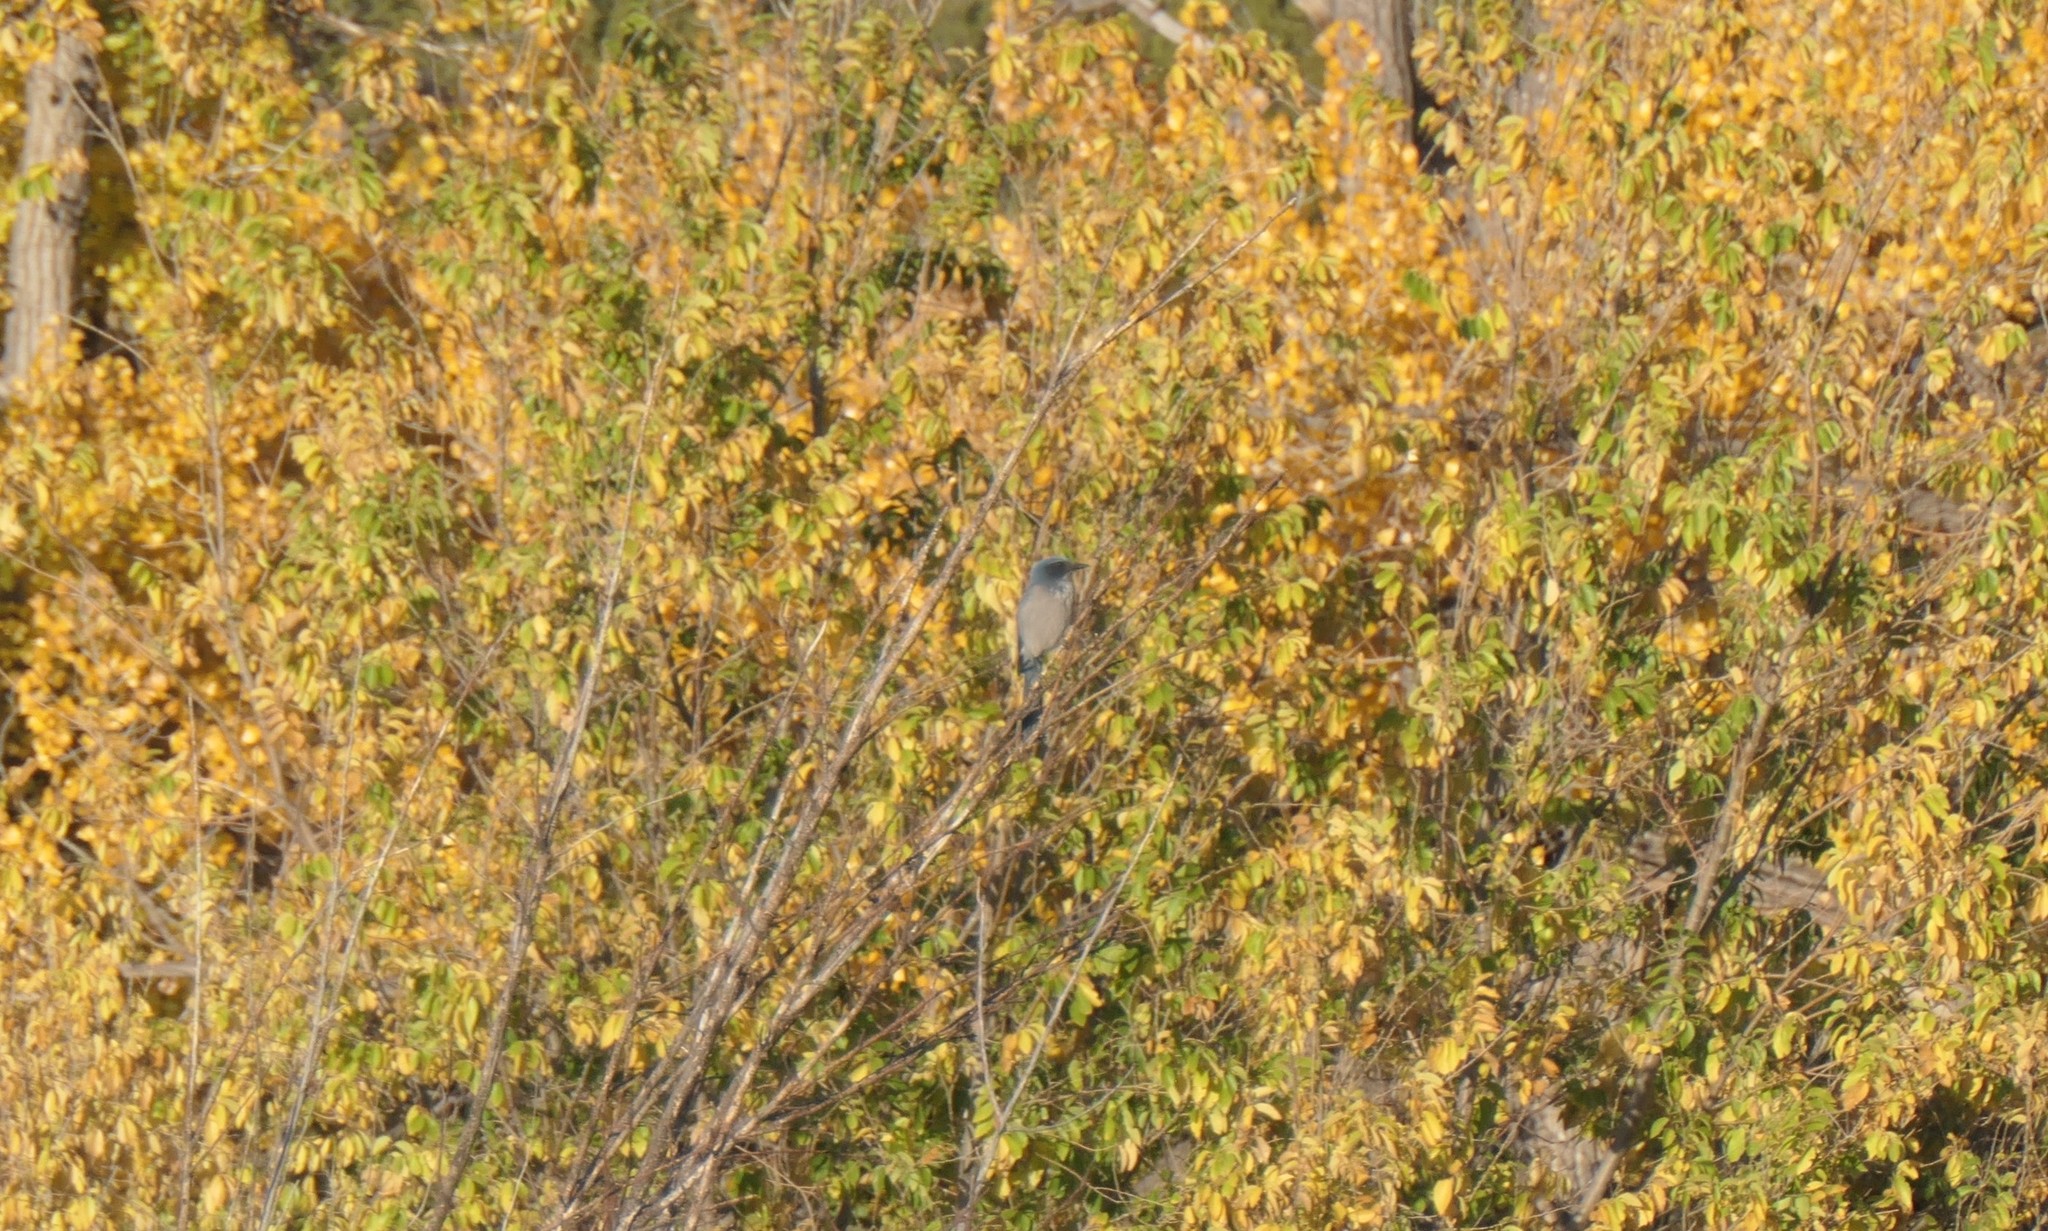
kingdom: Animalia
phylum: Chordata
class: Aves
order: Passeriformes
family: Corvidae
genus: Aphelocoma
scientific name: Aphelocoma woodhouseii
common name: Woodhouse's scrub-jay
